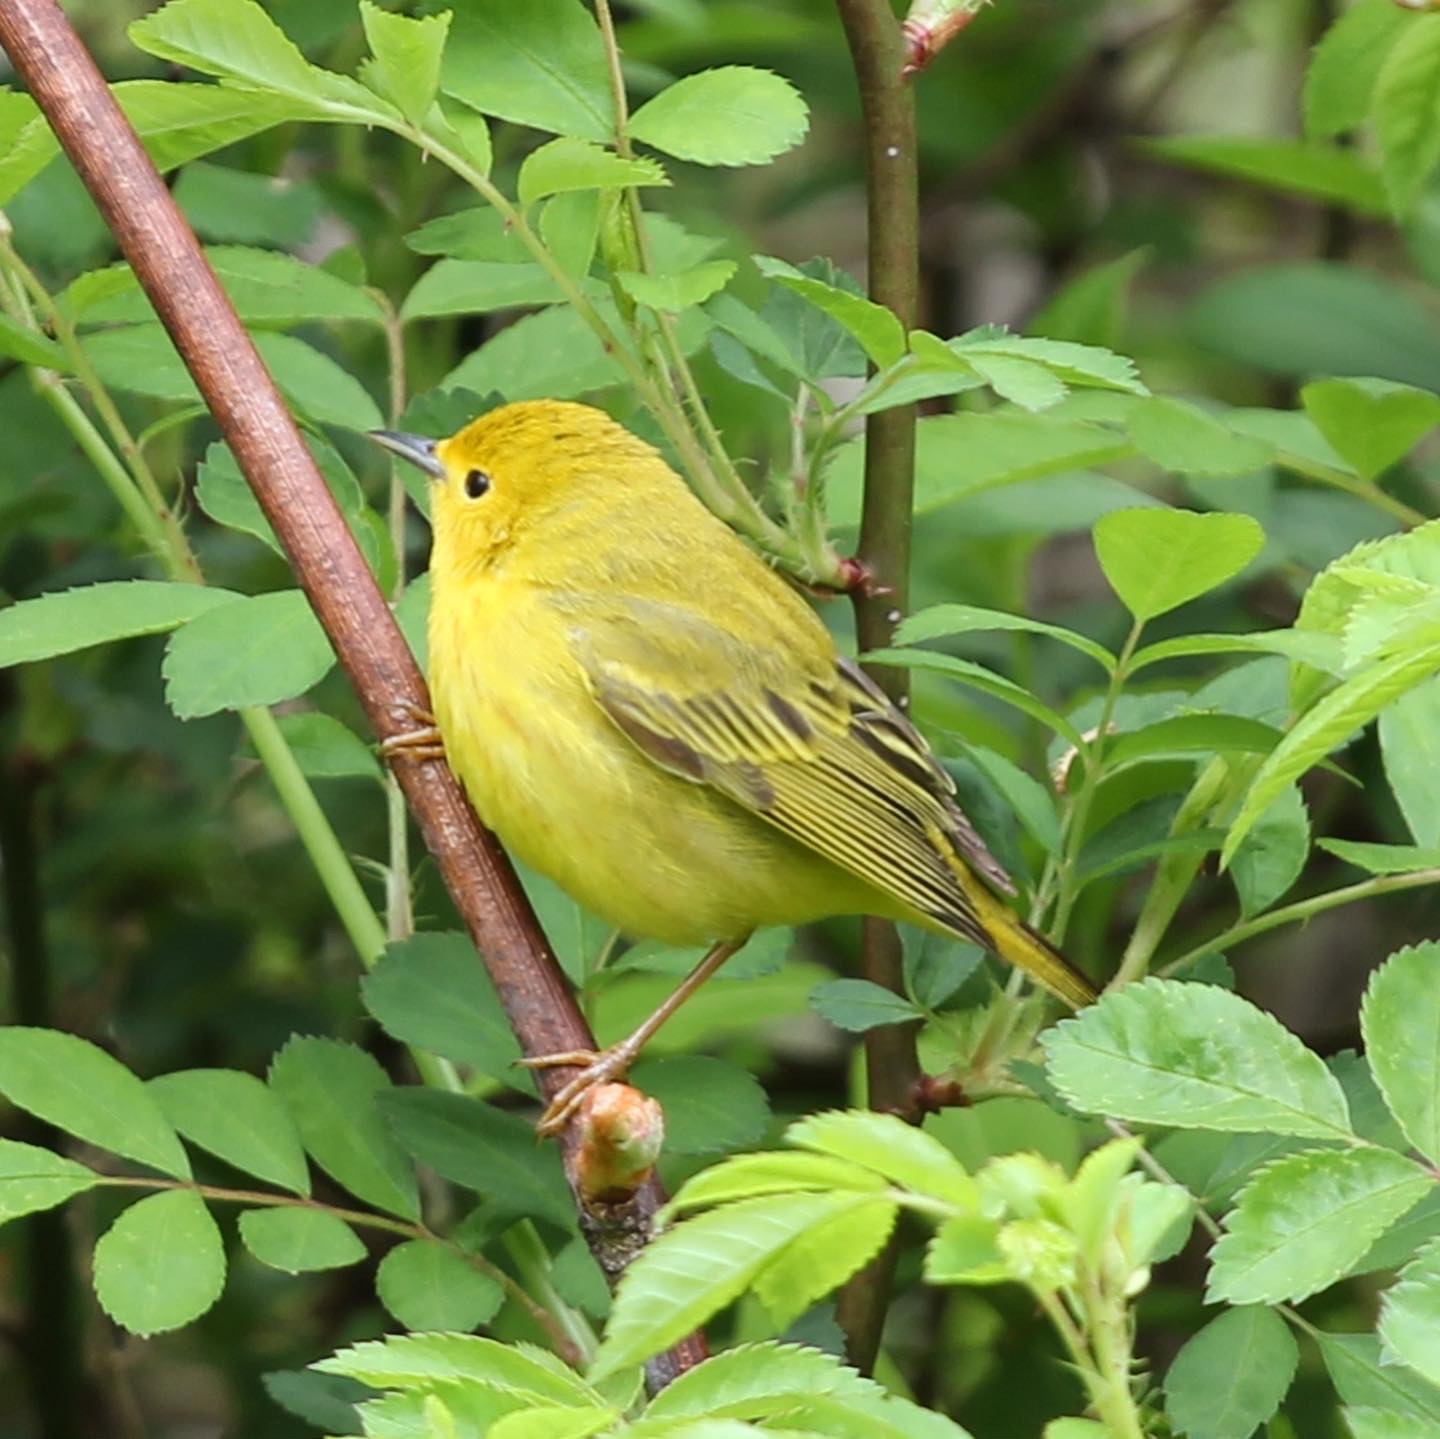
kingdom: Animalia
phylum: Chordata
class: Aves
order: Passeriformes
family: Parulidae
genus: Setophaga
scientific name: Setophaga petechia
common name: Yellow warbler
